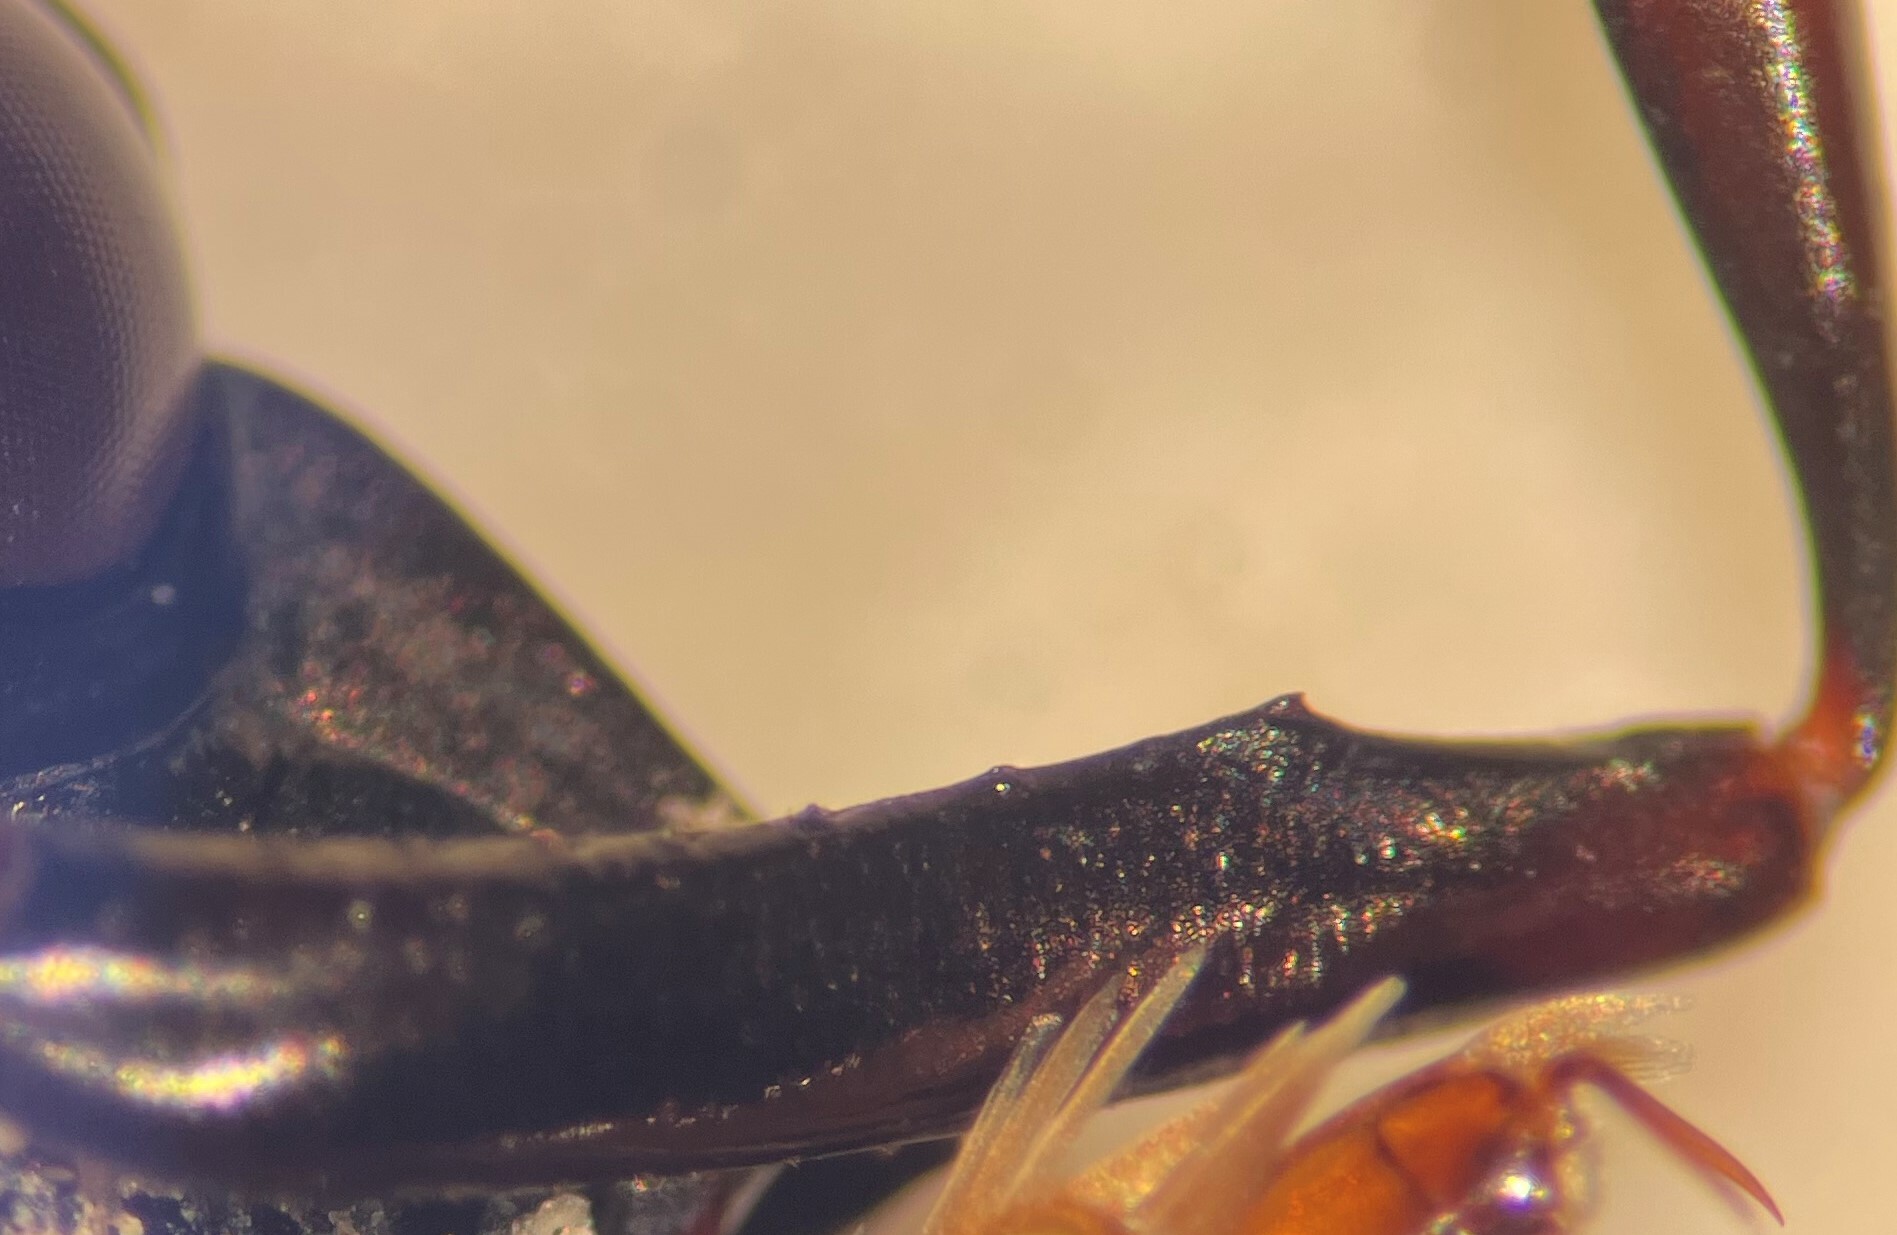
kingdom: Animalia
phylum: Arthropoda
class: Insecta
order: Coleoptera
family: Gyrinidae
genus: Dineutus
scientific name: Dineutus productus
